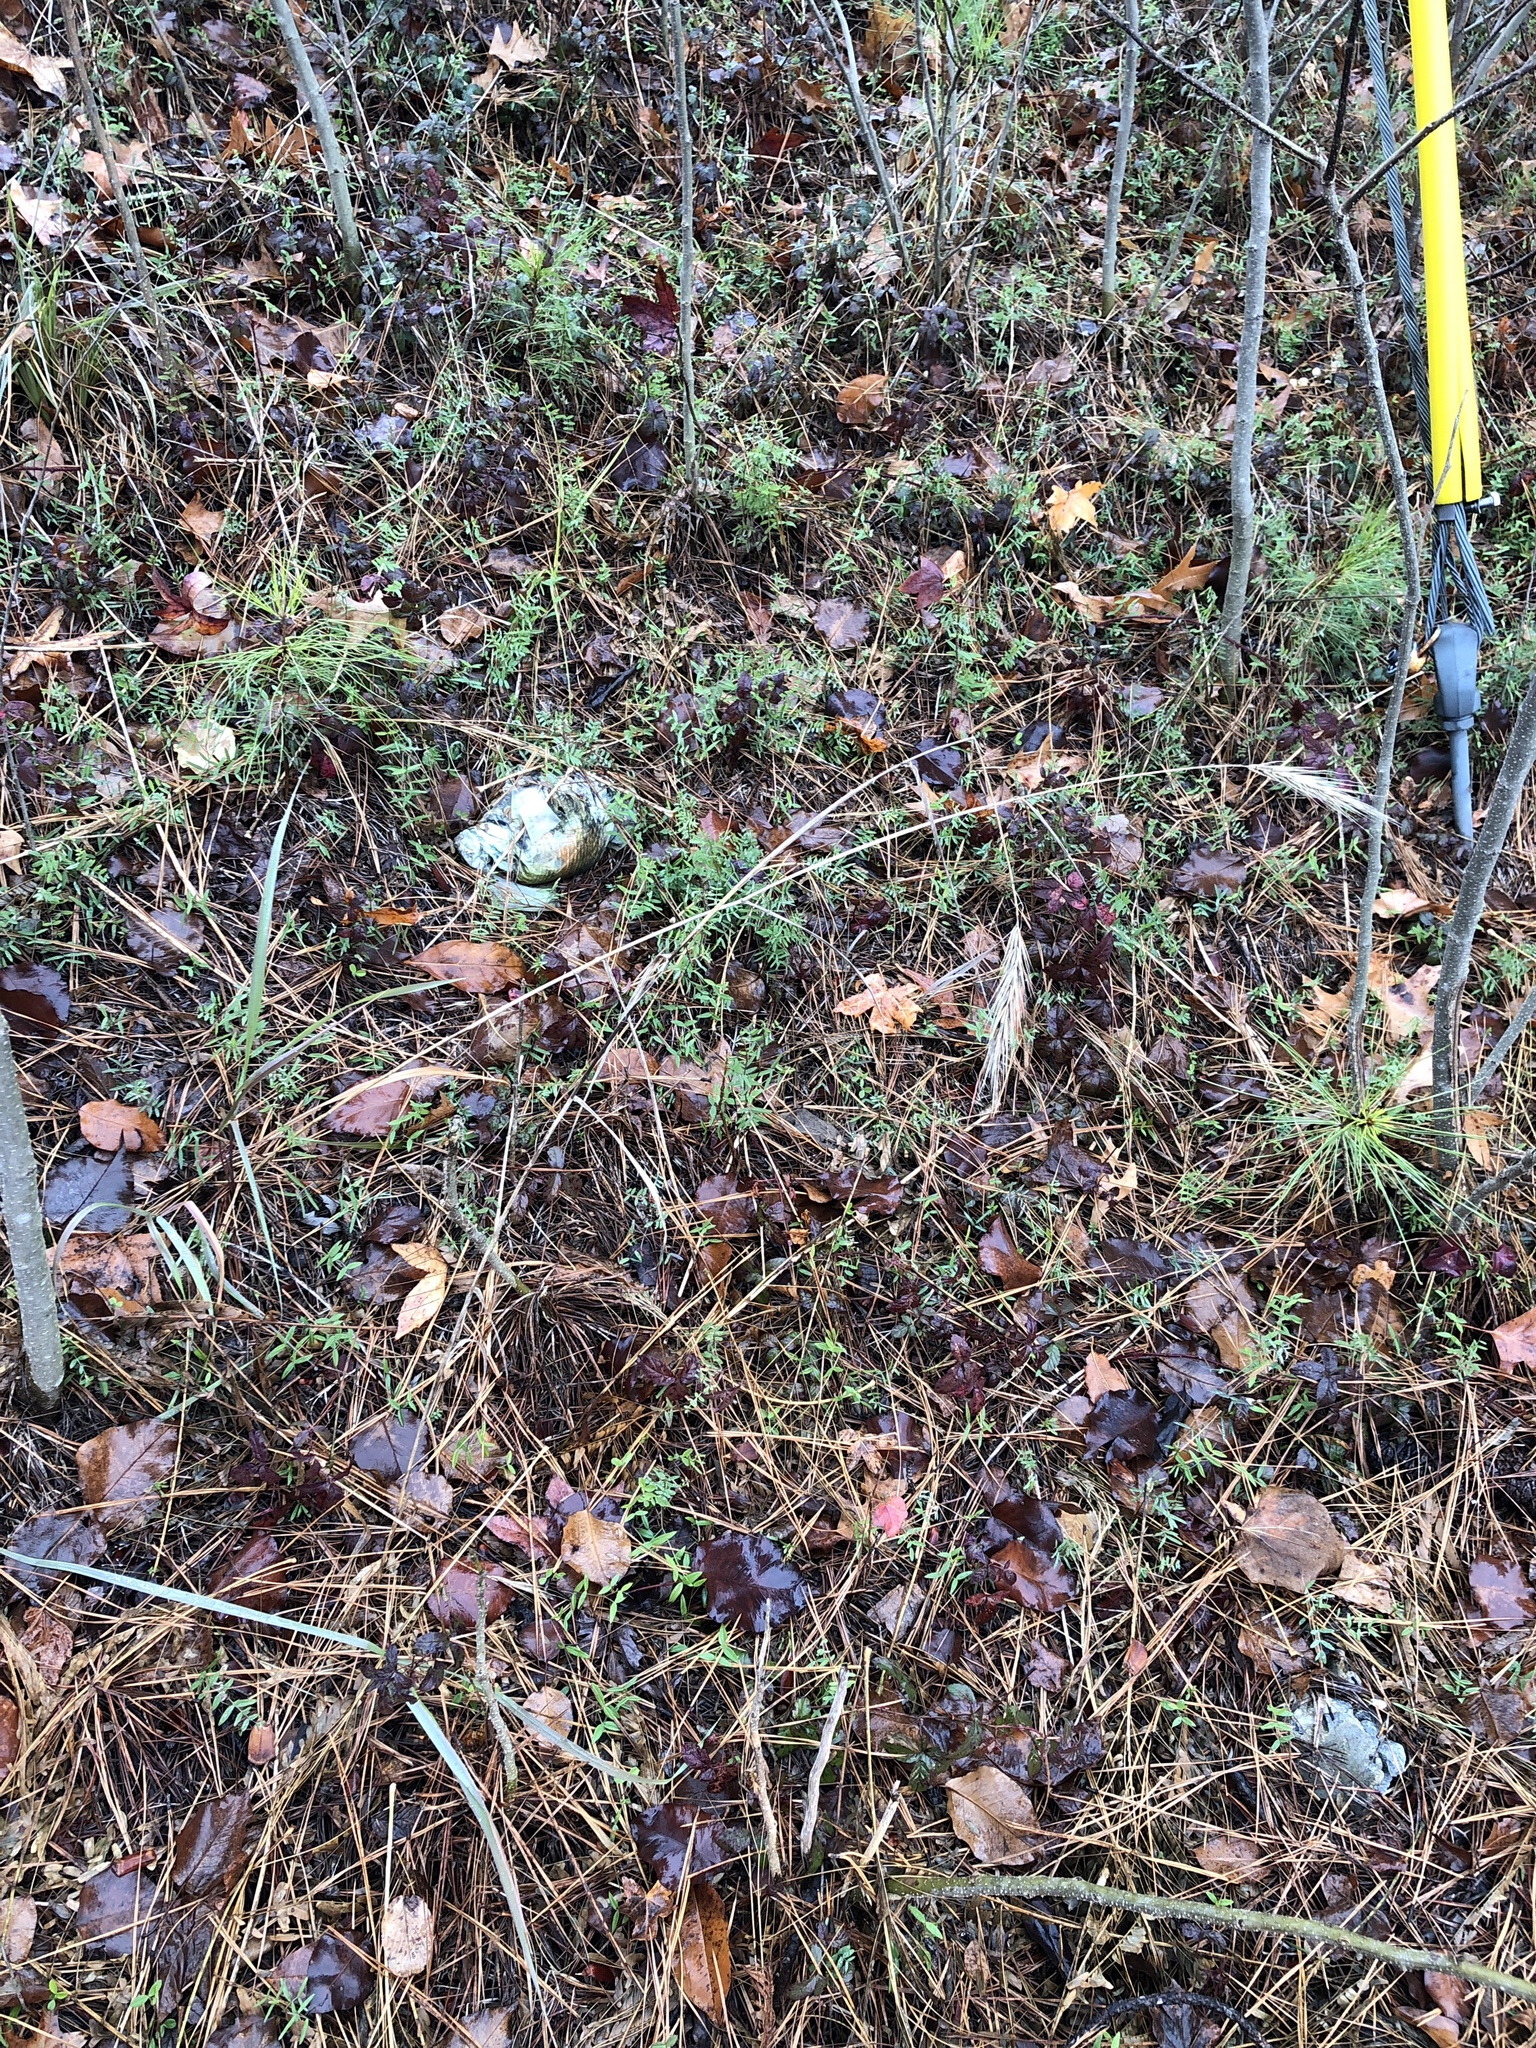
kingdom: Plantae
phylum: Tracheophyta
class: Liliopsida
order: Poales
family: Poaceae
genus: Elymus
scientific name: Elymus virginicus
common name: Common eastern wildrye
